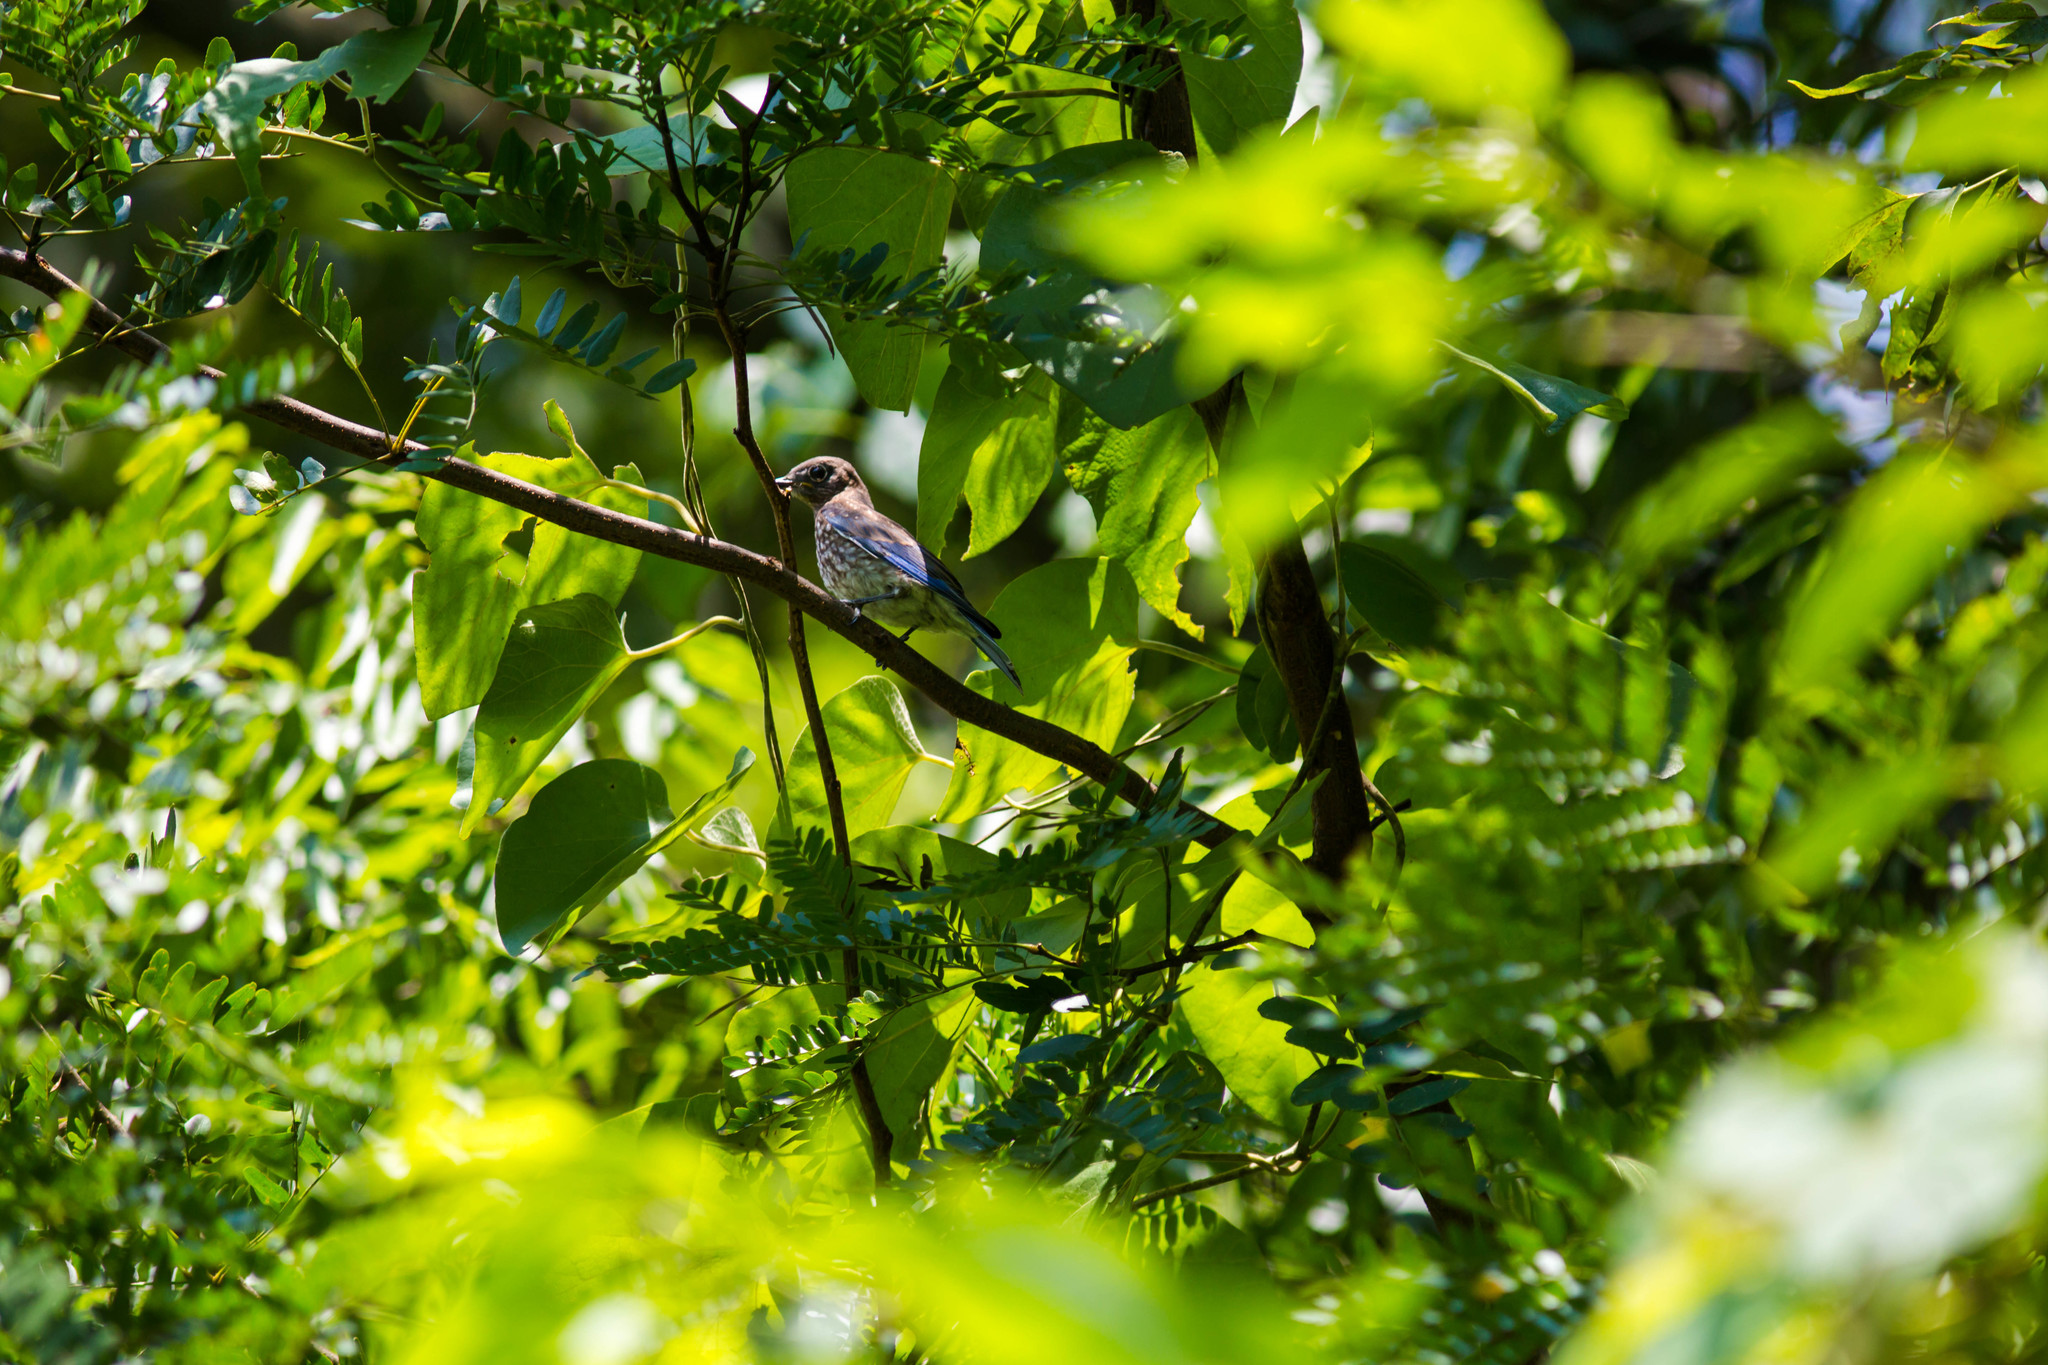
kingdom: Animalia
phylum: Chordata
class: Aves
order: Passeriformes
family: Turdidae
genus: Sialia
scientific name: Sialia sialis
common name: Eastern bluebird
